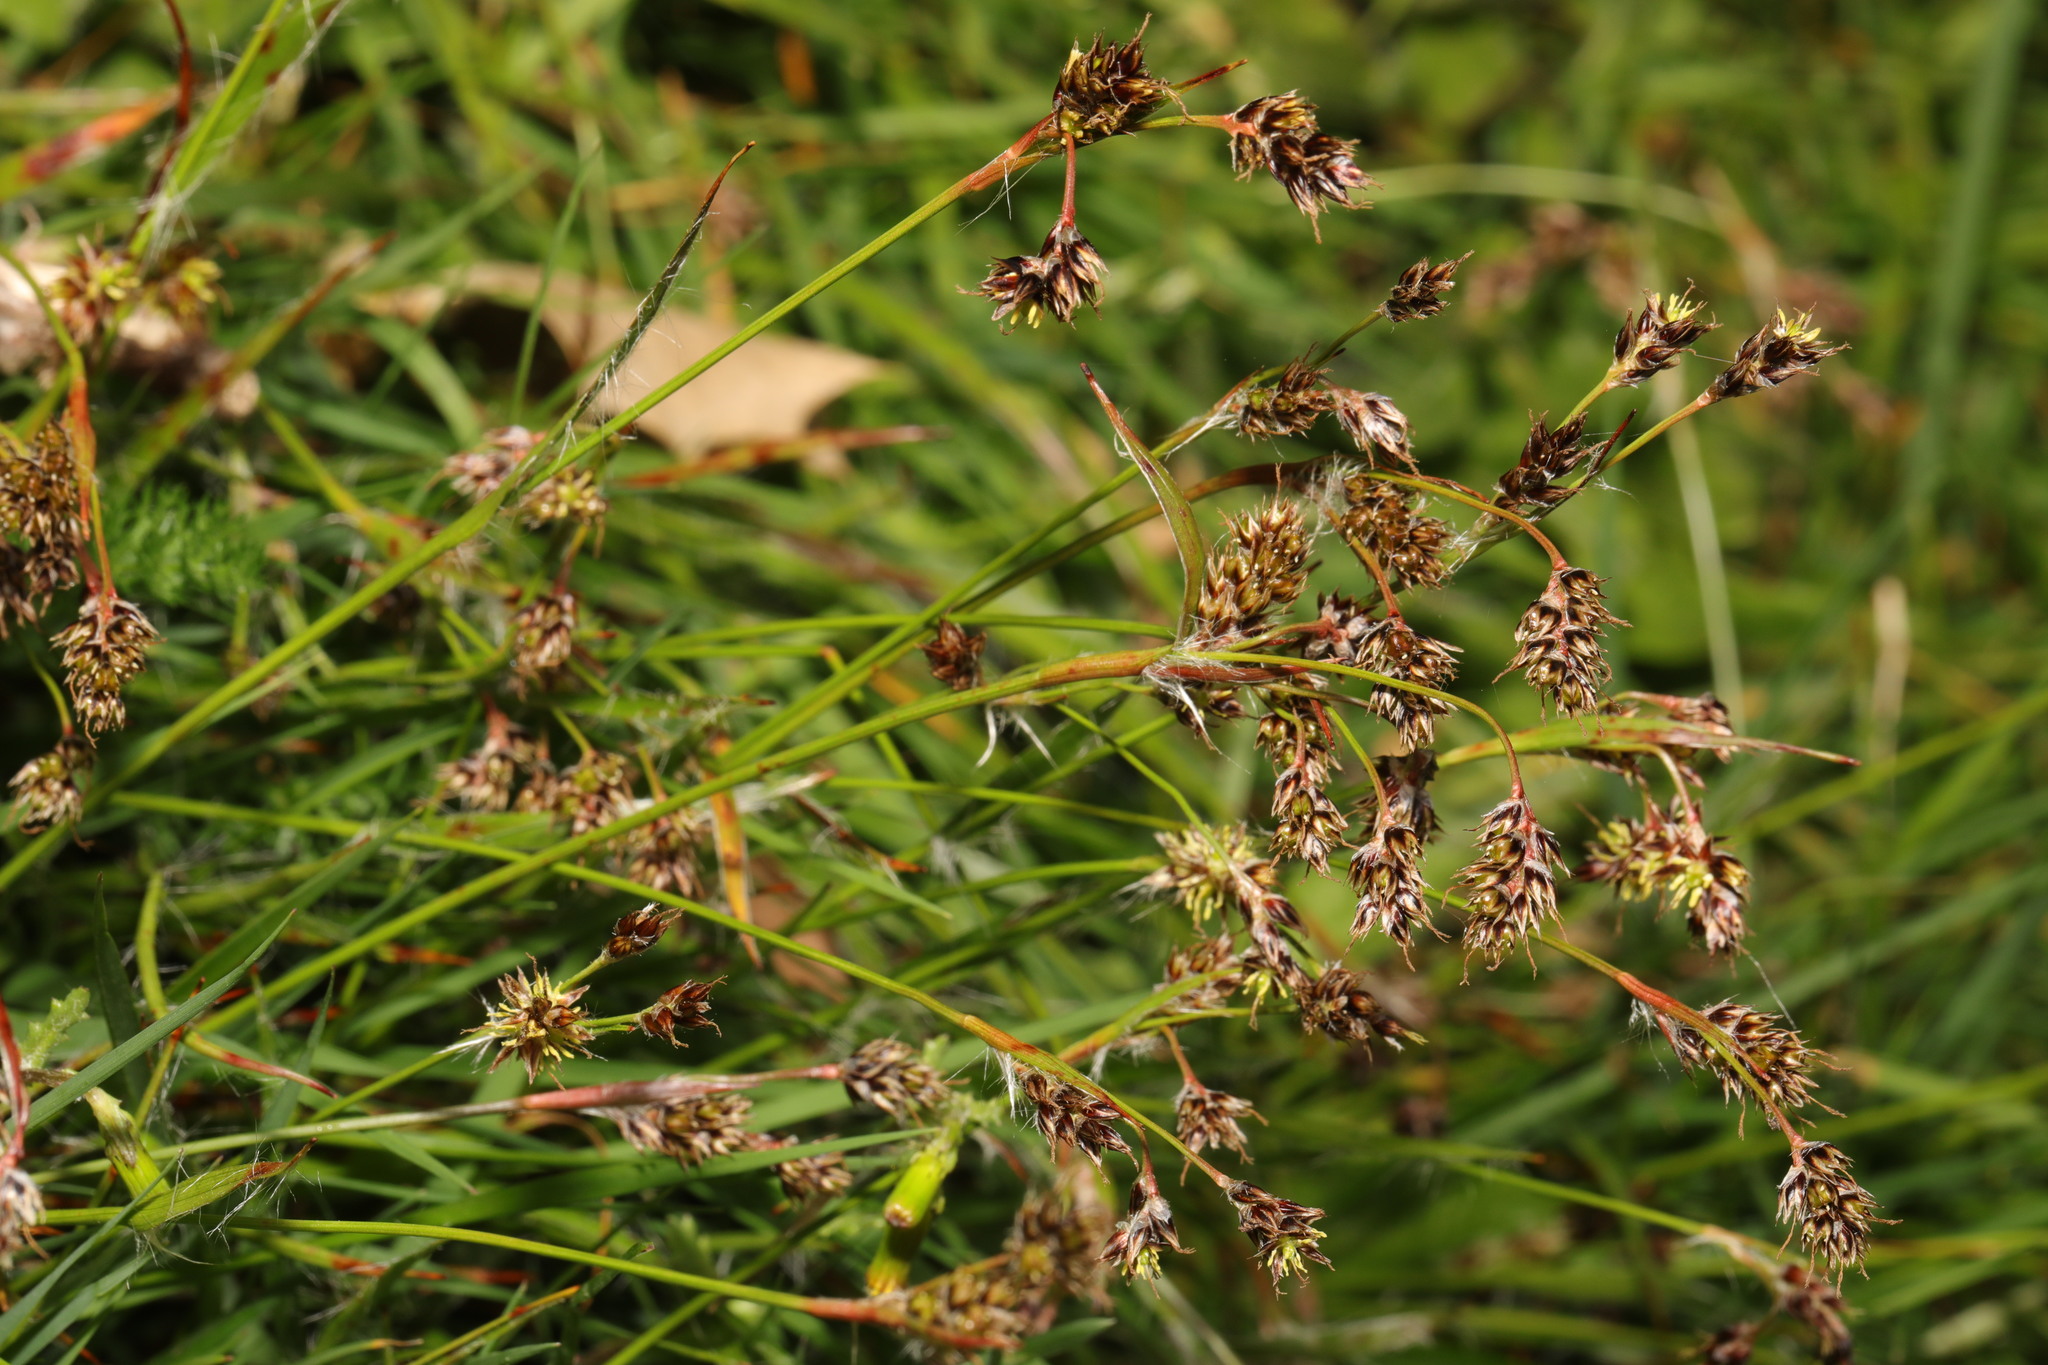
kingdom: Plantae
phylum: Tracheophyta
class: Liliopsida
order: Poales
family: Juncaceae
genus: Luzula
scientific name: Luzula campestris
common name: Field wood-rush
